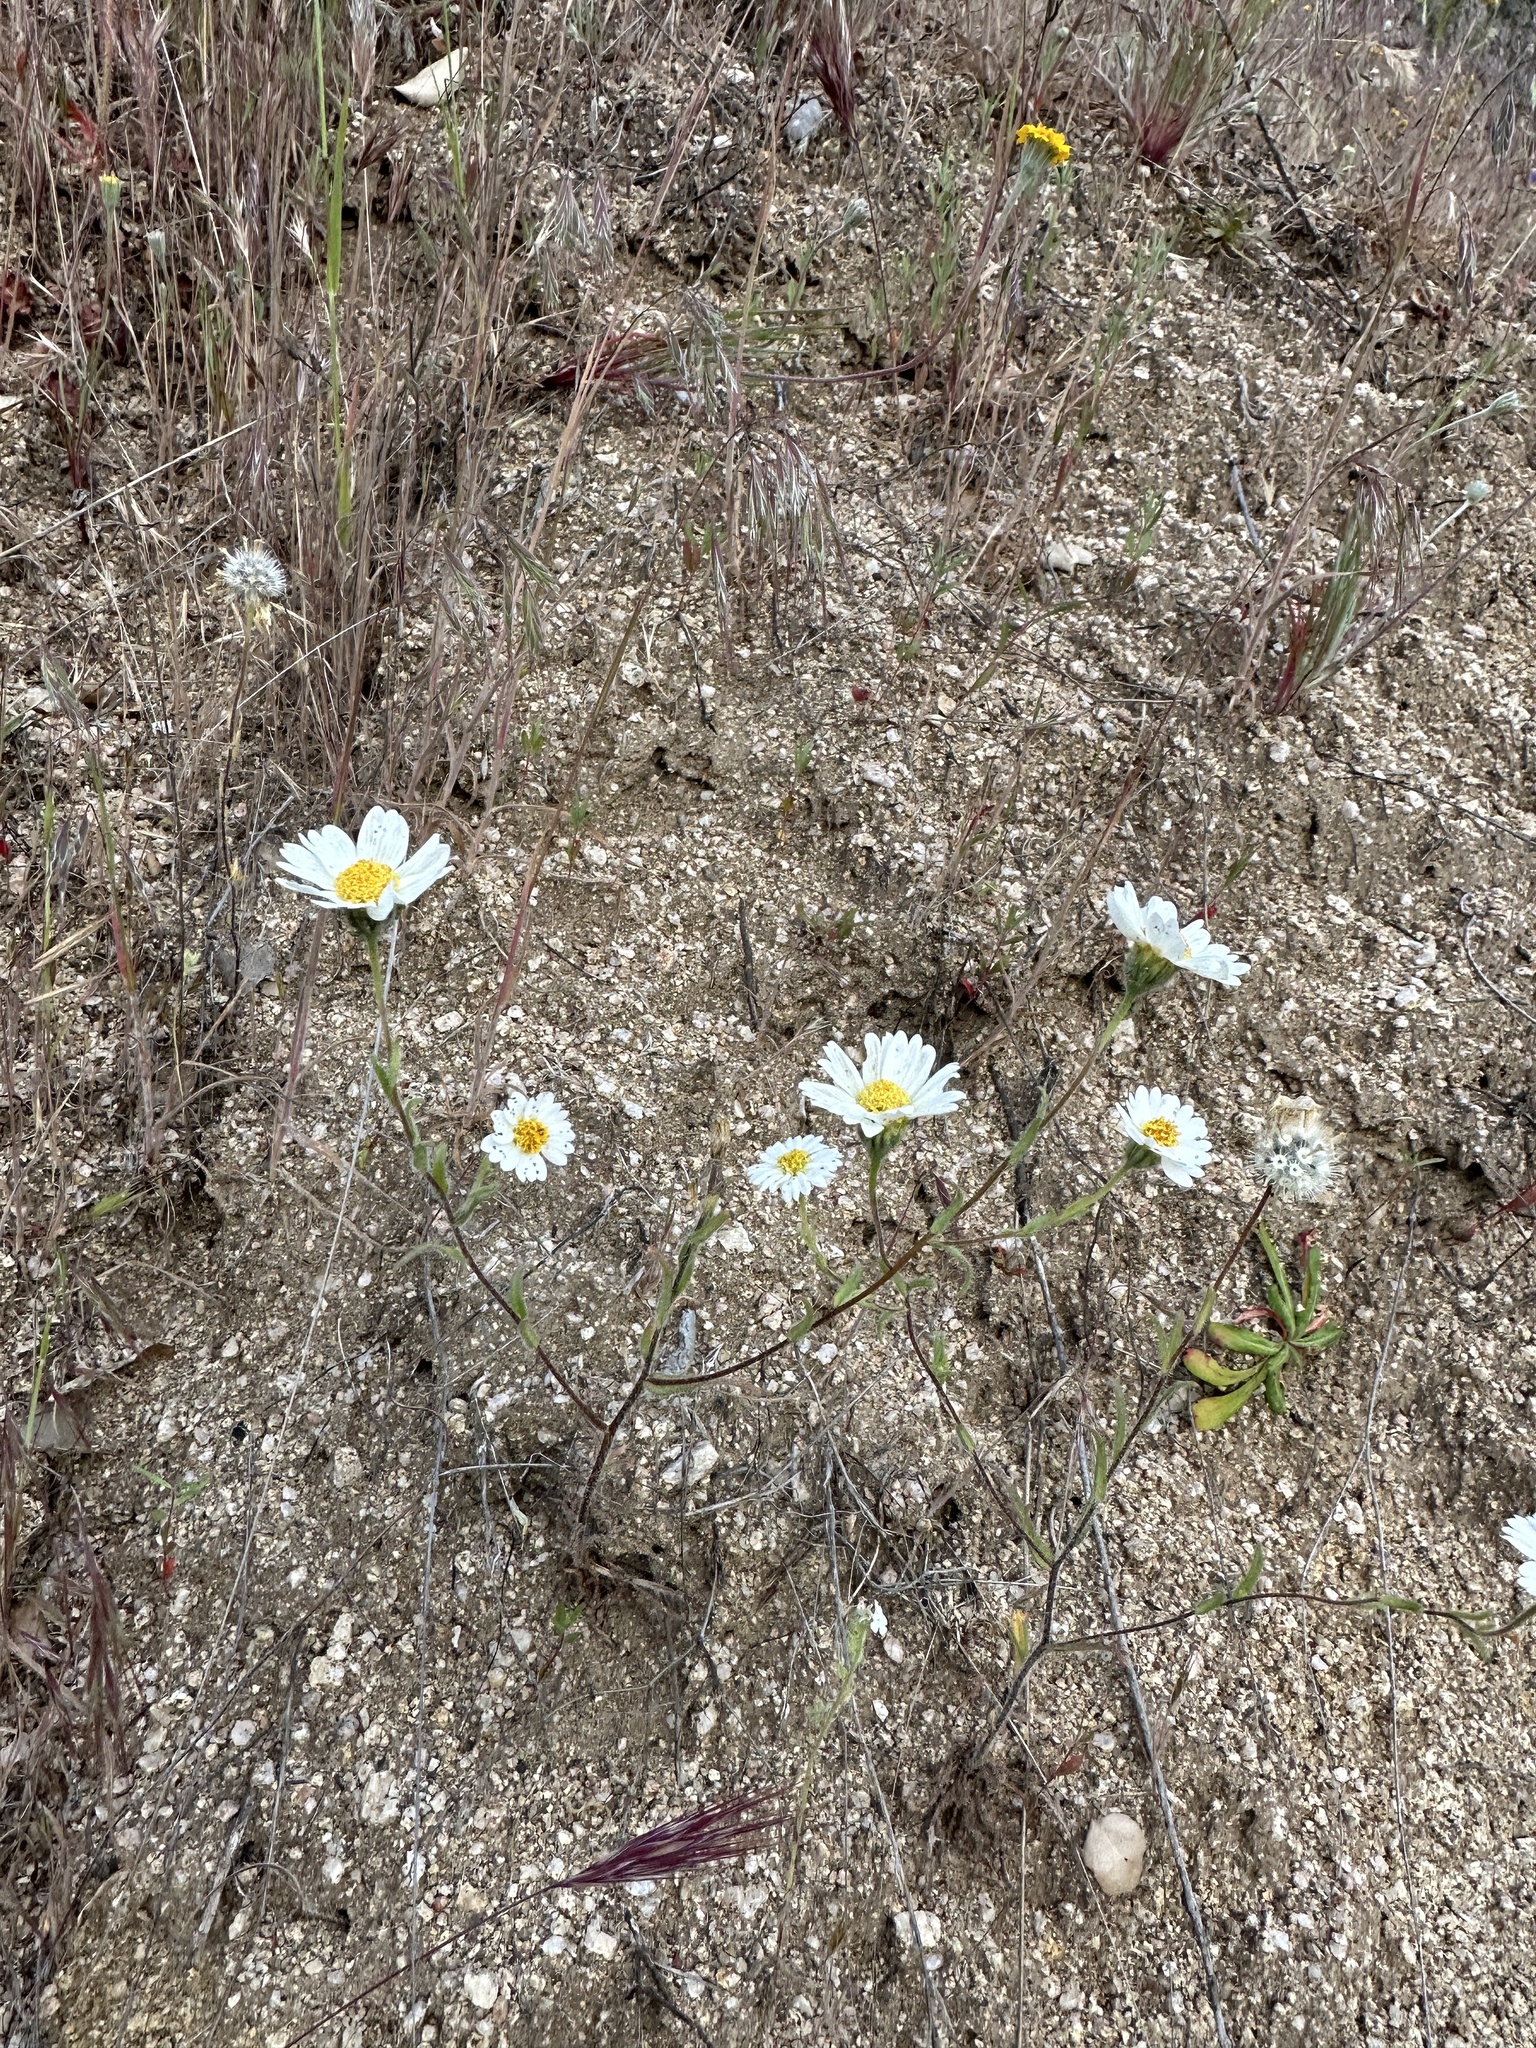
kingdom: Plantae
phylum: Tracheophyta
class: Magnoliopsida
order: Asterales
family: Asteraceae
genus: Layia
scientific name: Layia glandulosa
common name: White layia
